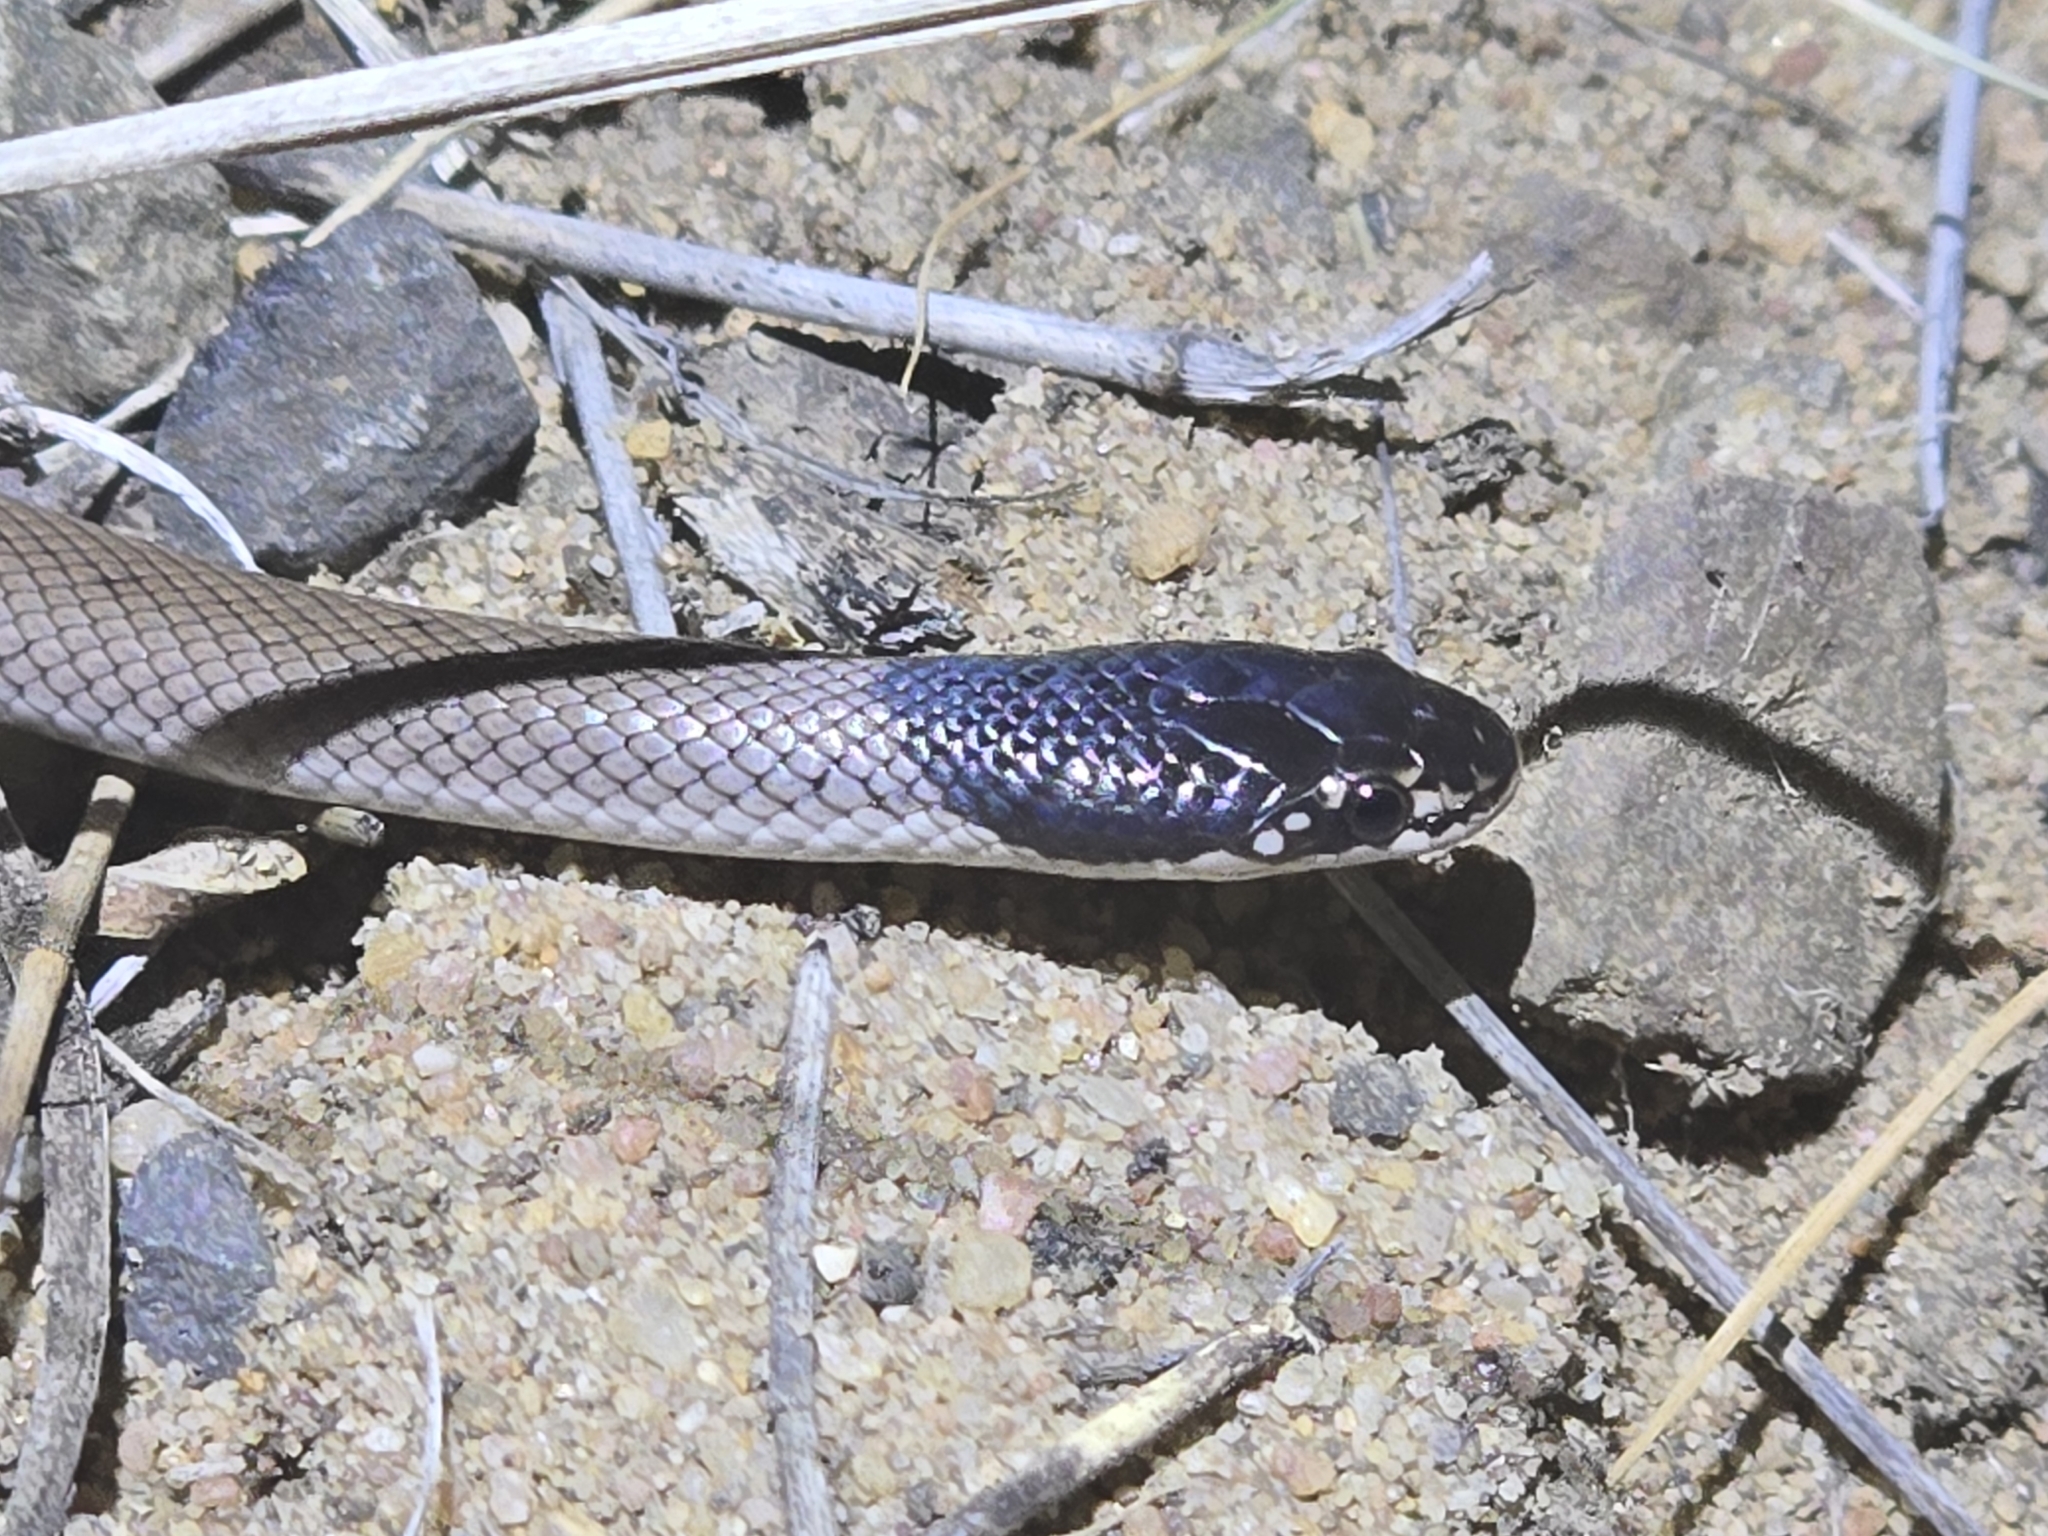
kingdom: Animalia
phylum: Chordata
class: Squamata
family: Elapidae
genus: Suta
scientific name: Suta suta
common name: Curl snake
